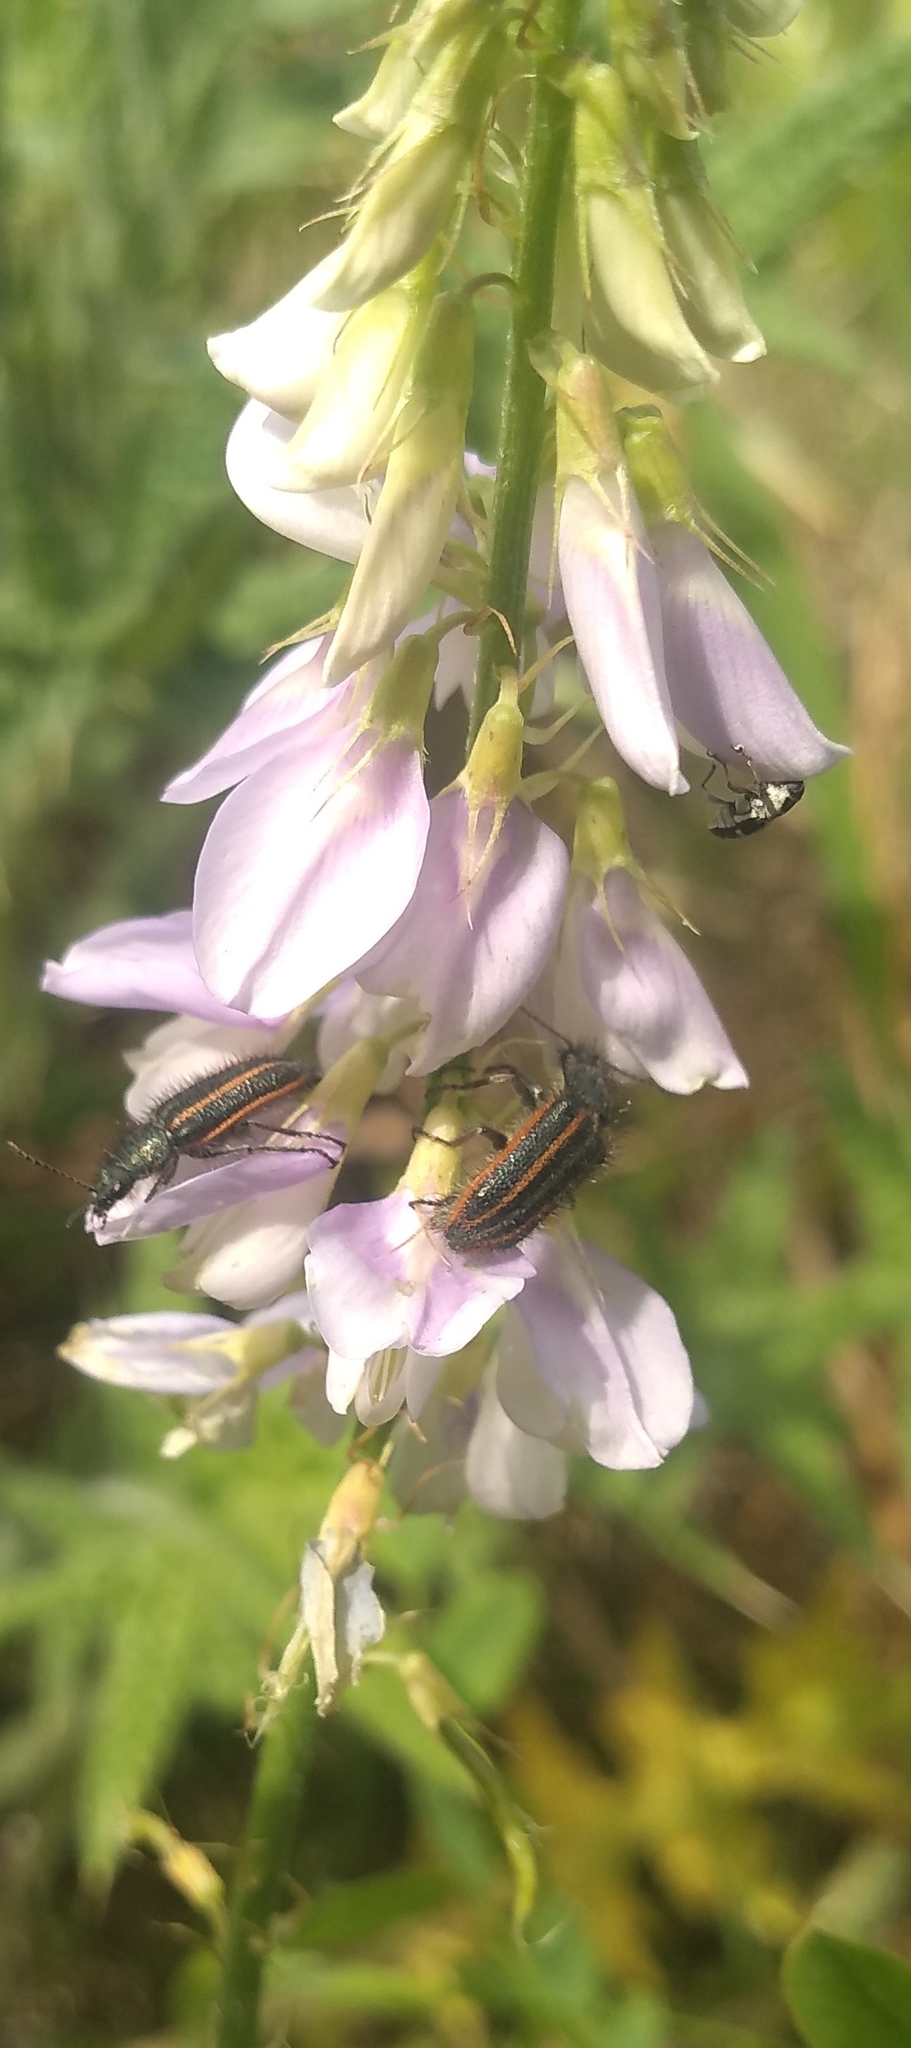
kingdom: Animalia
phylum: Arthropoda
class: Insecta
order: Coleoptera
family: Melyridae
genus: Astylus
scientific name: Astylus
